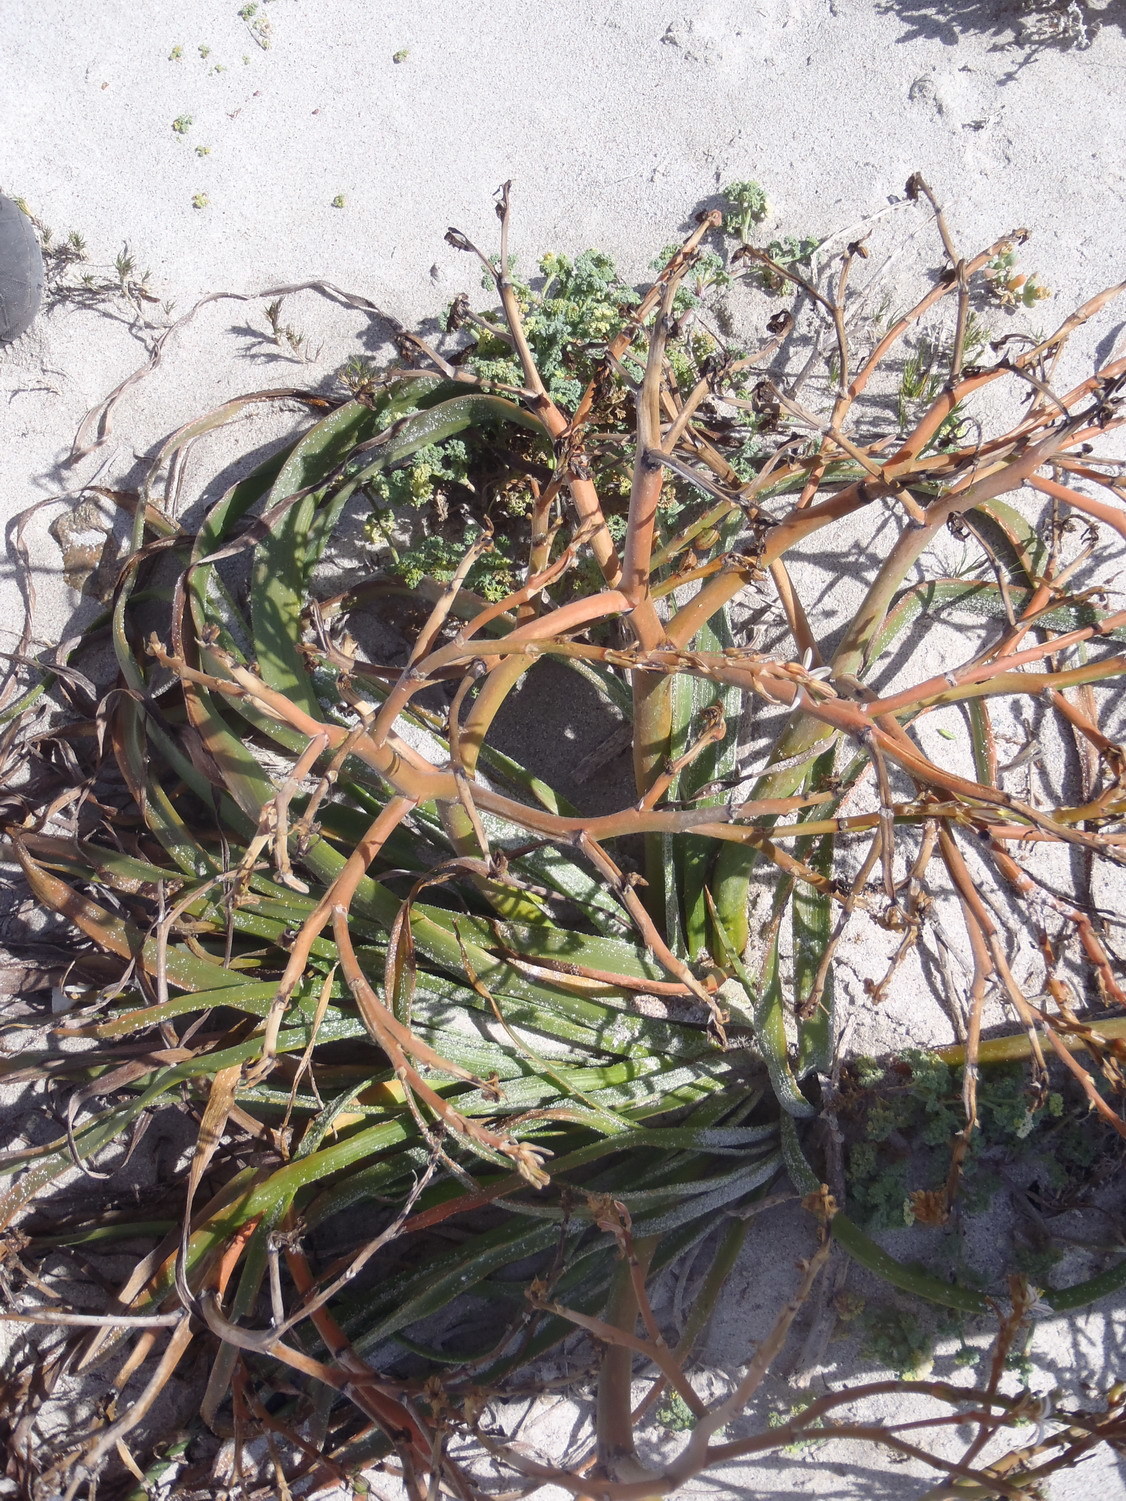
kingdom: Plantae
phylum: Tracheophyta
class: Liliopsida
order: Asparagales
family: Asphodelaceae
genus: Trachyandra
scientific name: Trachyandra divaricata
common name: Dune onionweed
